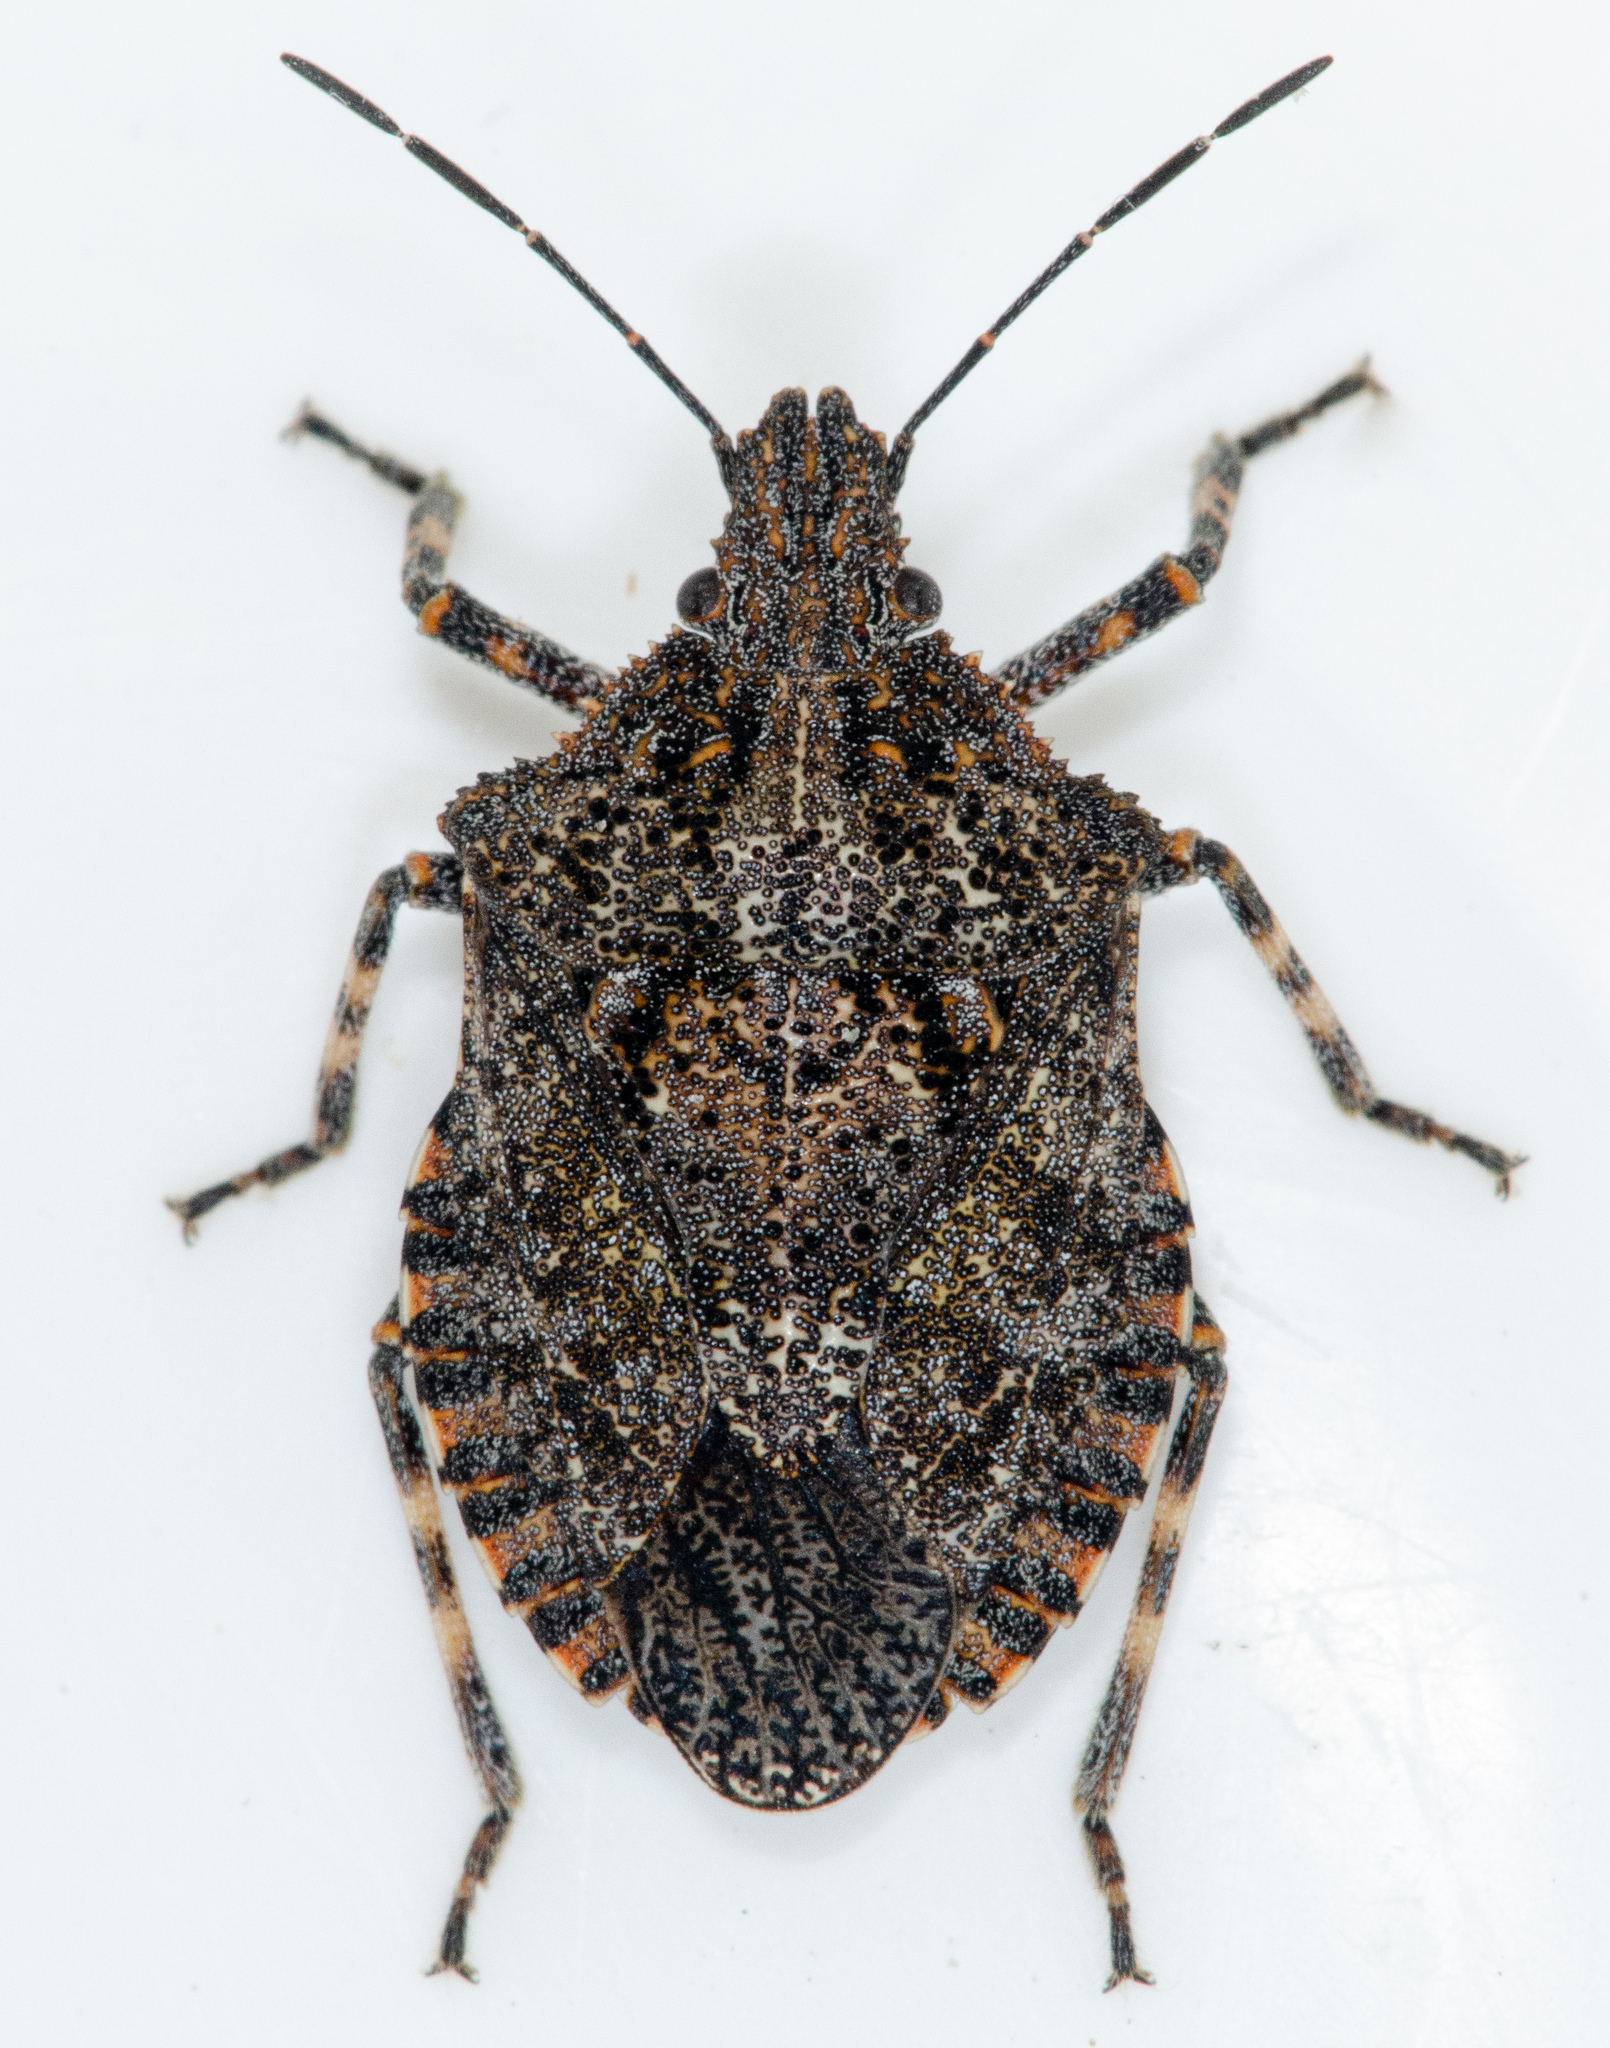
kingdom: Animalia
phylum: Arthropoda
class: Insecta
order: Hemiptera
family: Pentatomidae
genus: Brochymena
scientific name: Brochymena quadripustulata
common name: Four-humped stink bug
